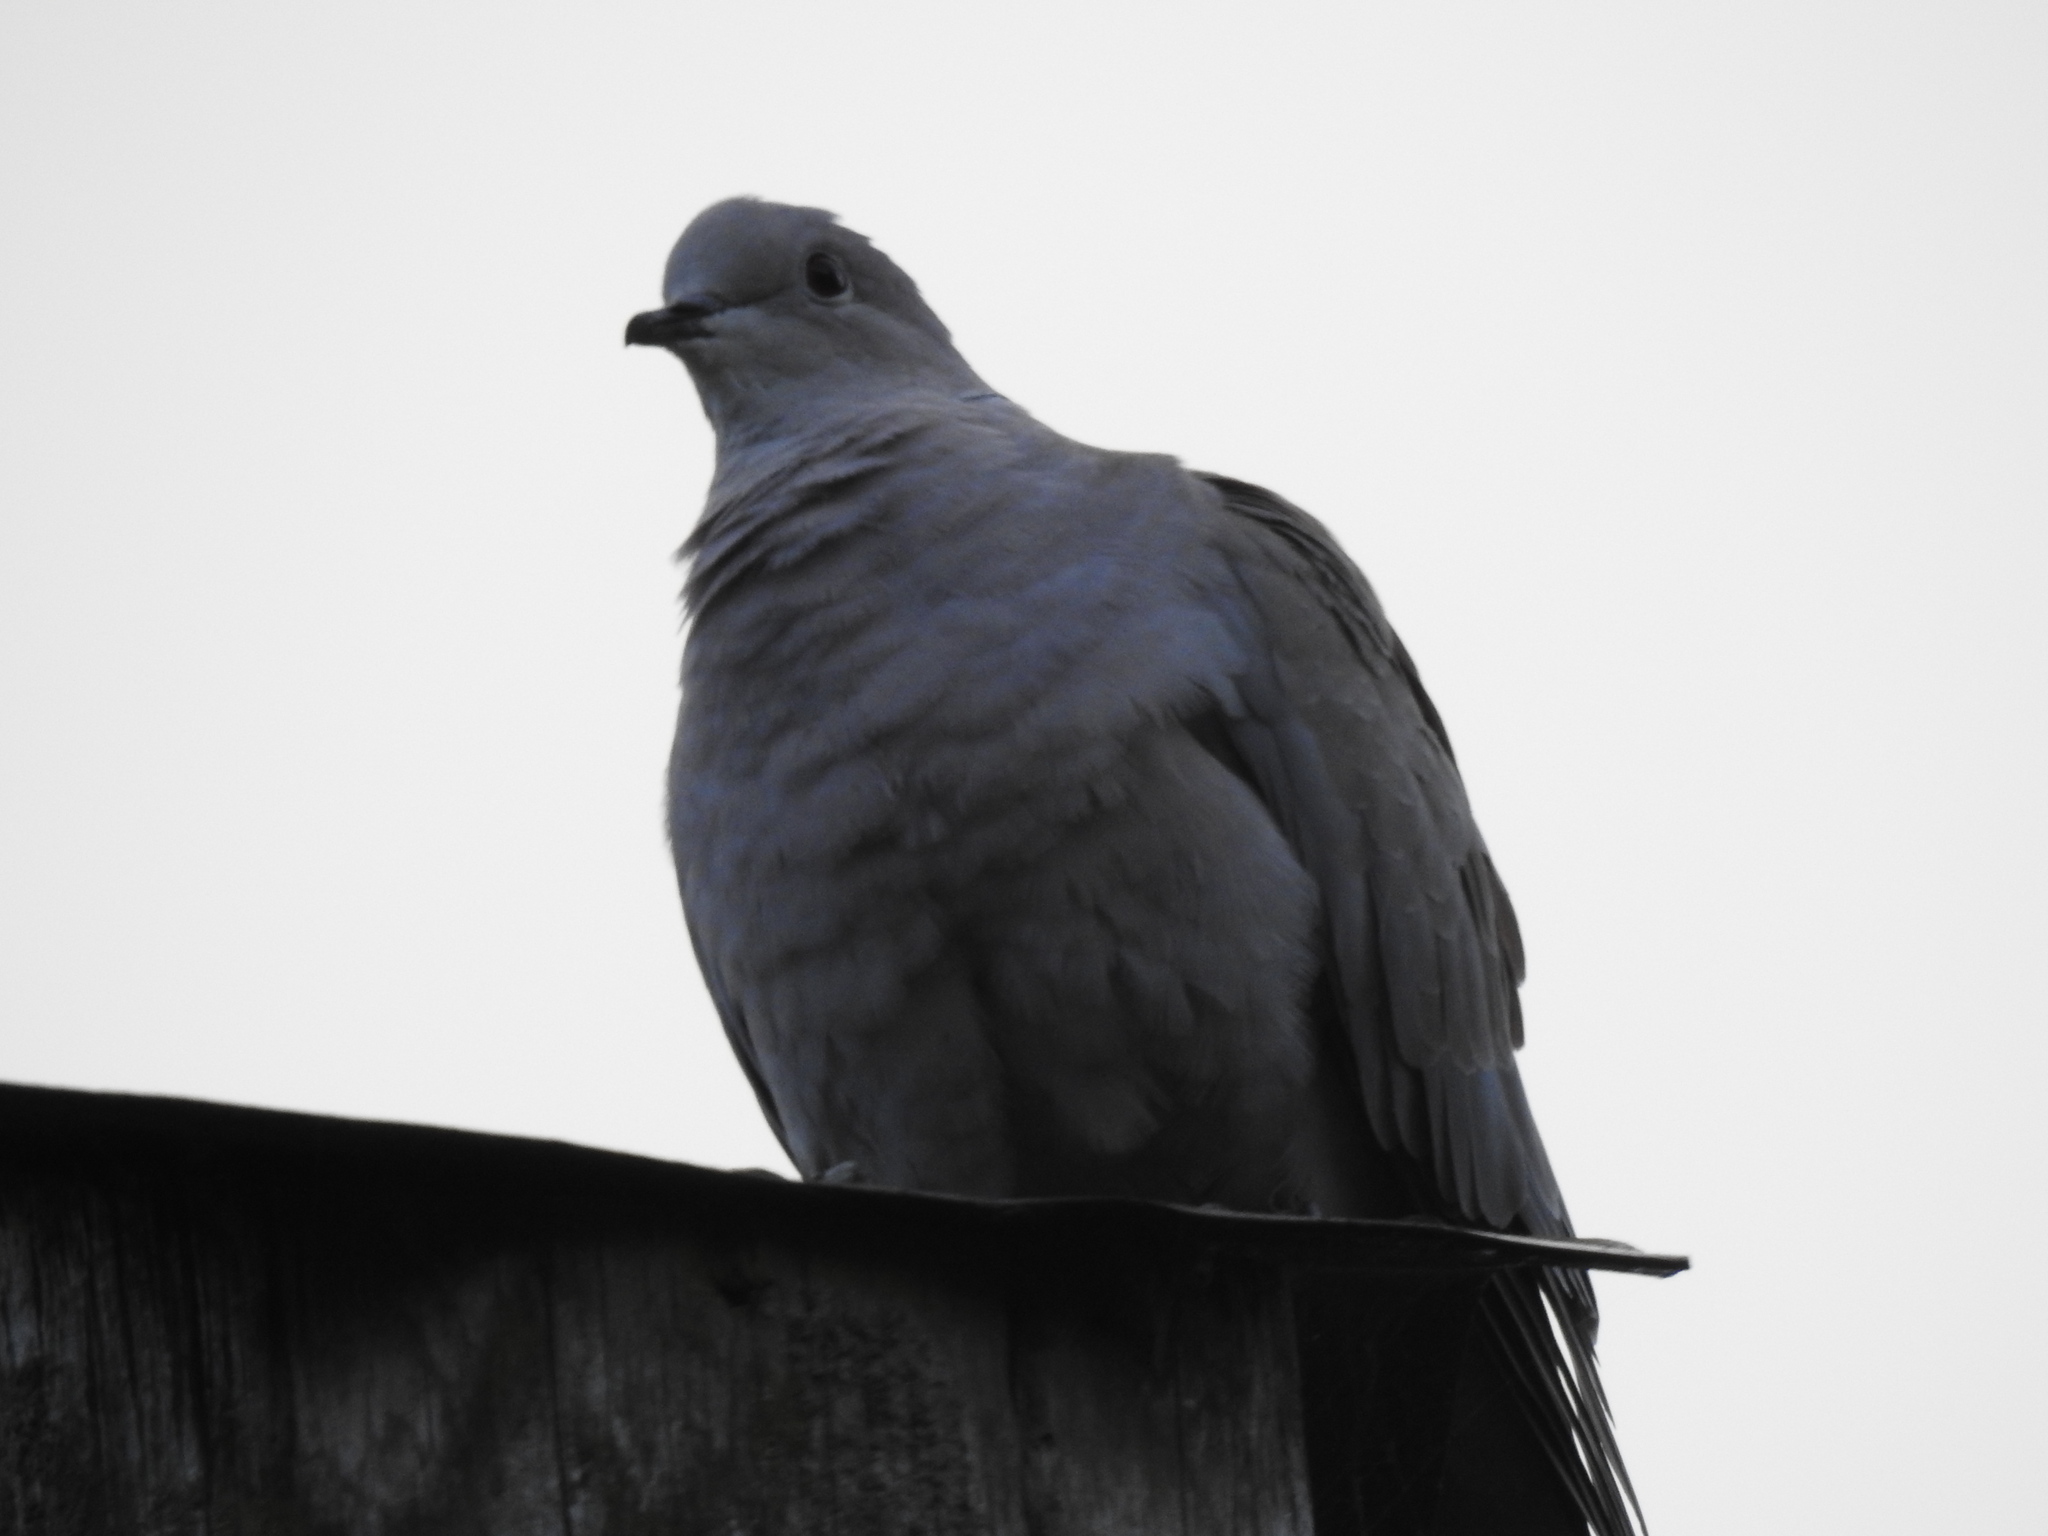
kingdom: Animalia
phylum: Chordata
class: Aves
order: Columbiformes
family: Columbidae
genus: Streptopelia
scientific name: Streptopelia decaocto
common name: Eurasian collared dove
